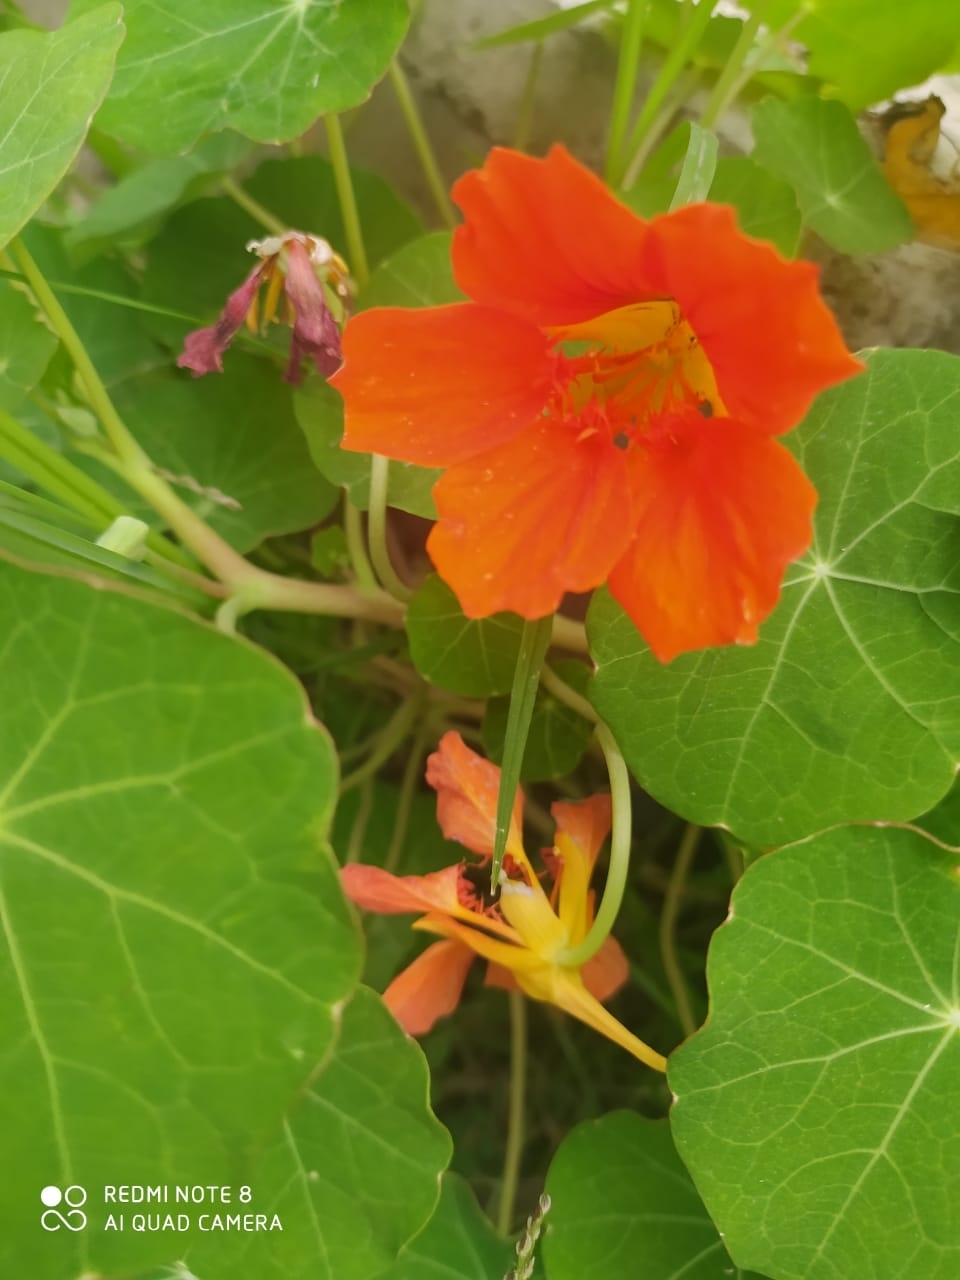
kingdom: Plantae
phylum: Tracheophyta
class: Magnoliopsida
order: Brassicales
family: Tropaeolaceae
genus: Tropaeolum
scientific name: Tropaeolum majus
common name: Nasturtium
